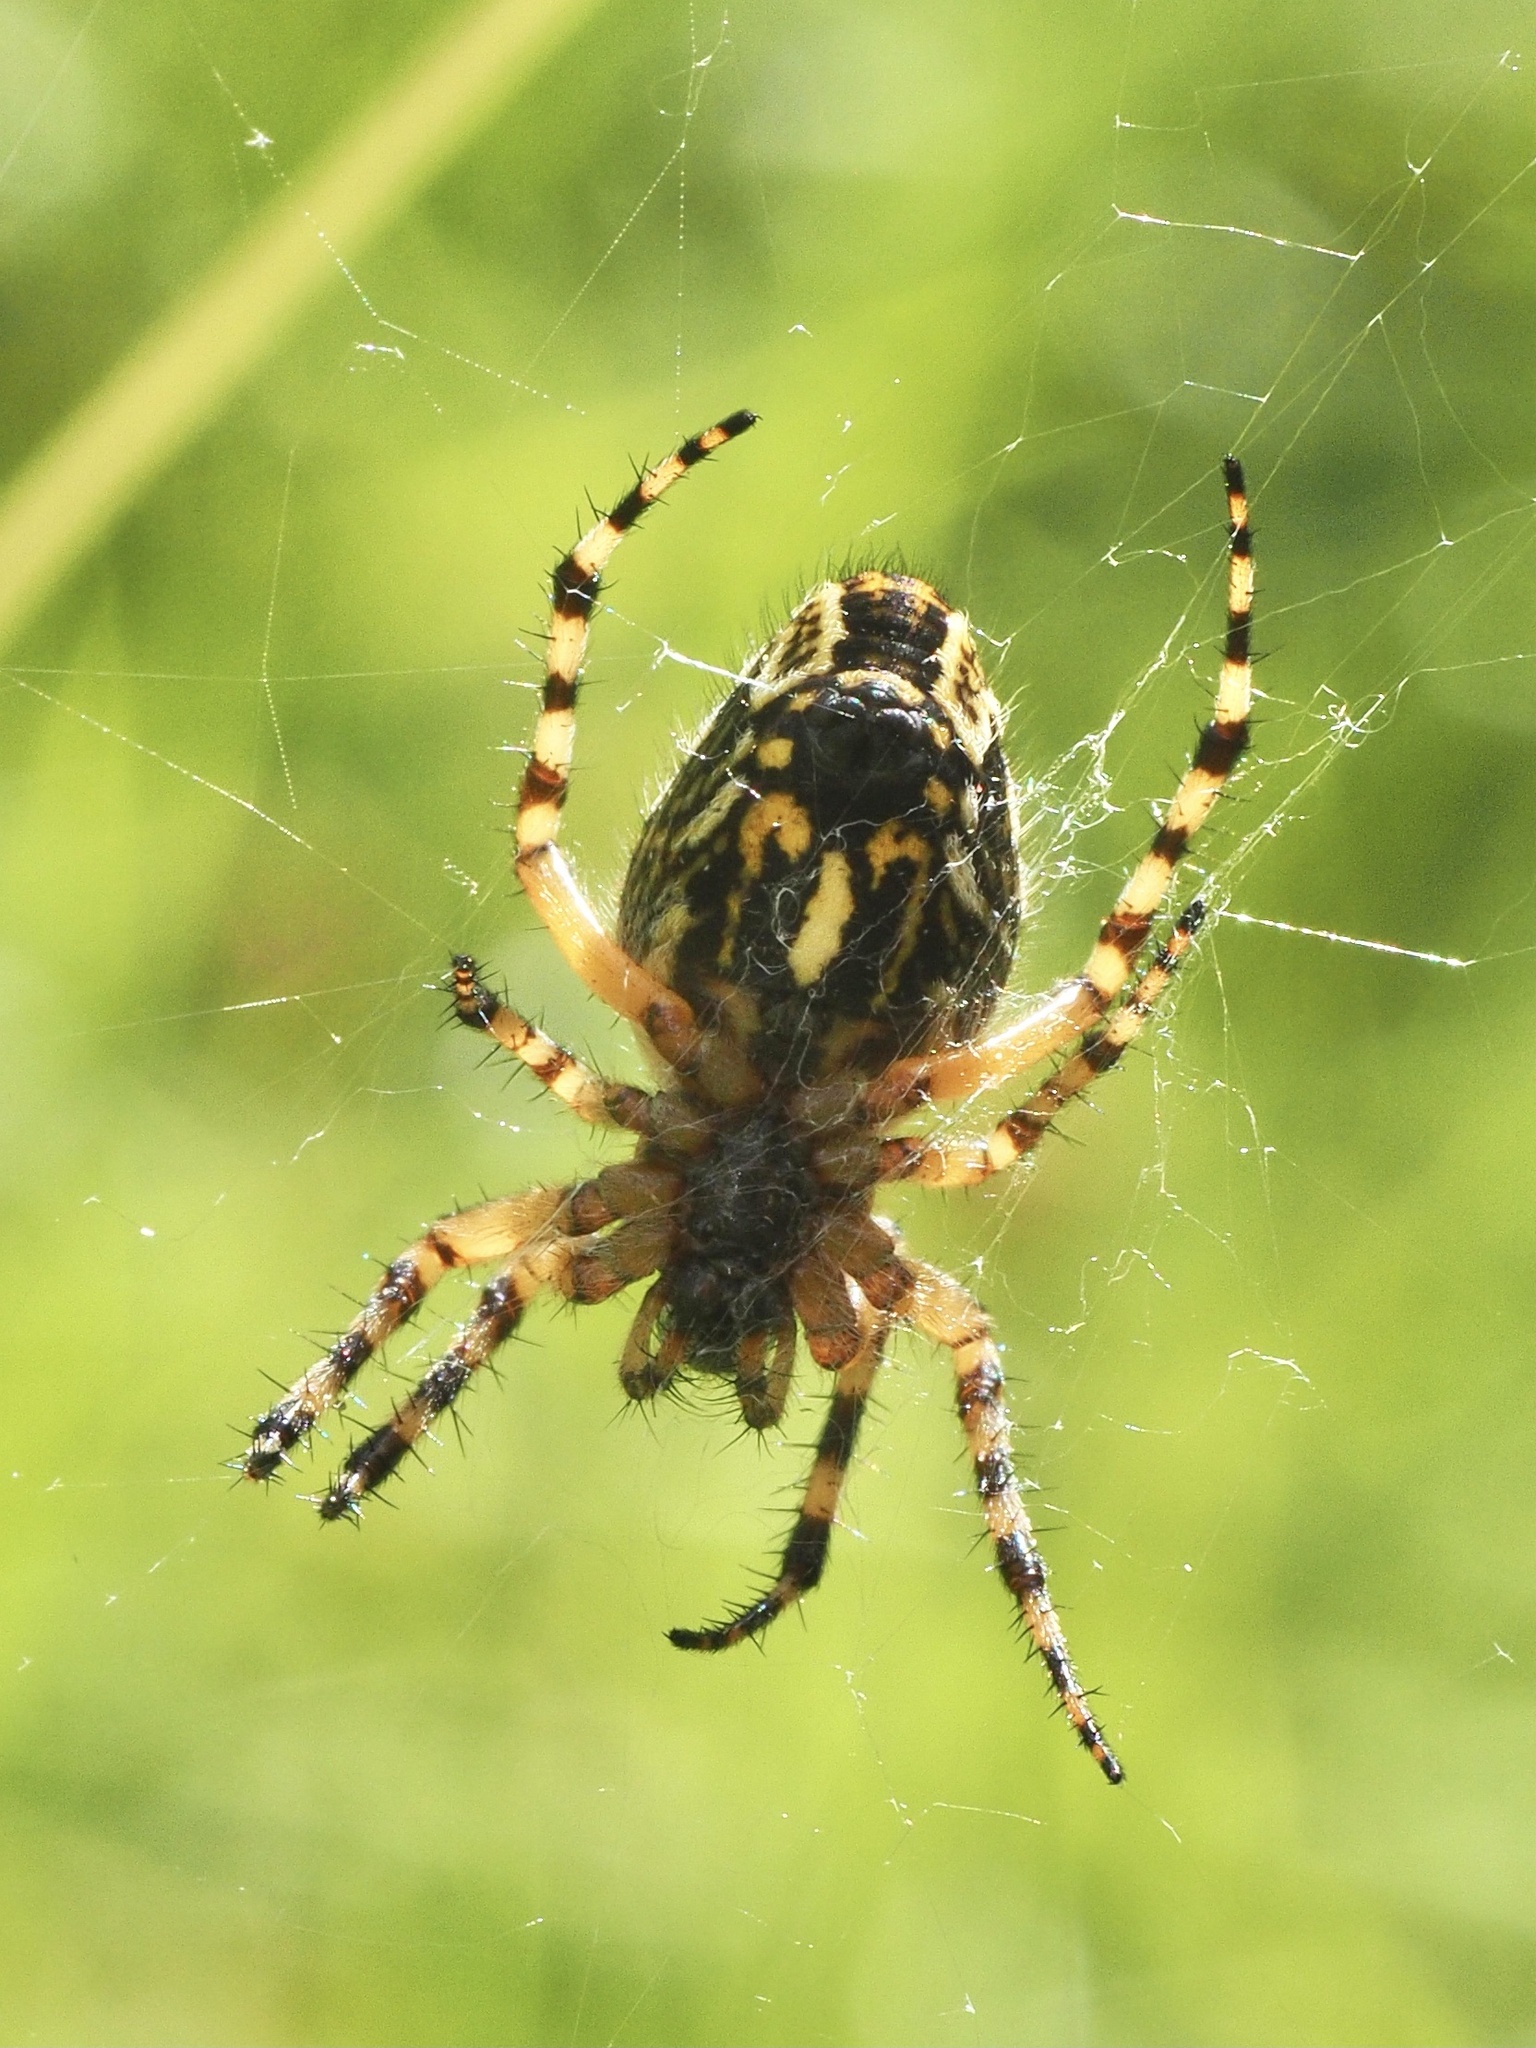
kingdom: Animalia
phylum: Arthropoda
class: Arachnida
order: Araneae
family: Araneidae
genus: Aculepeira
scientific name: Aculepeira ceropegia
